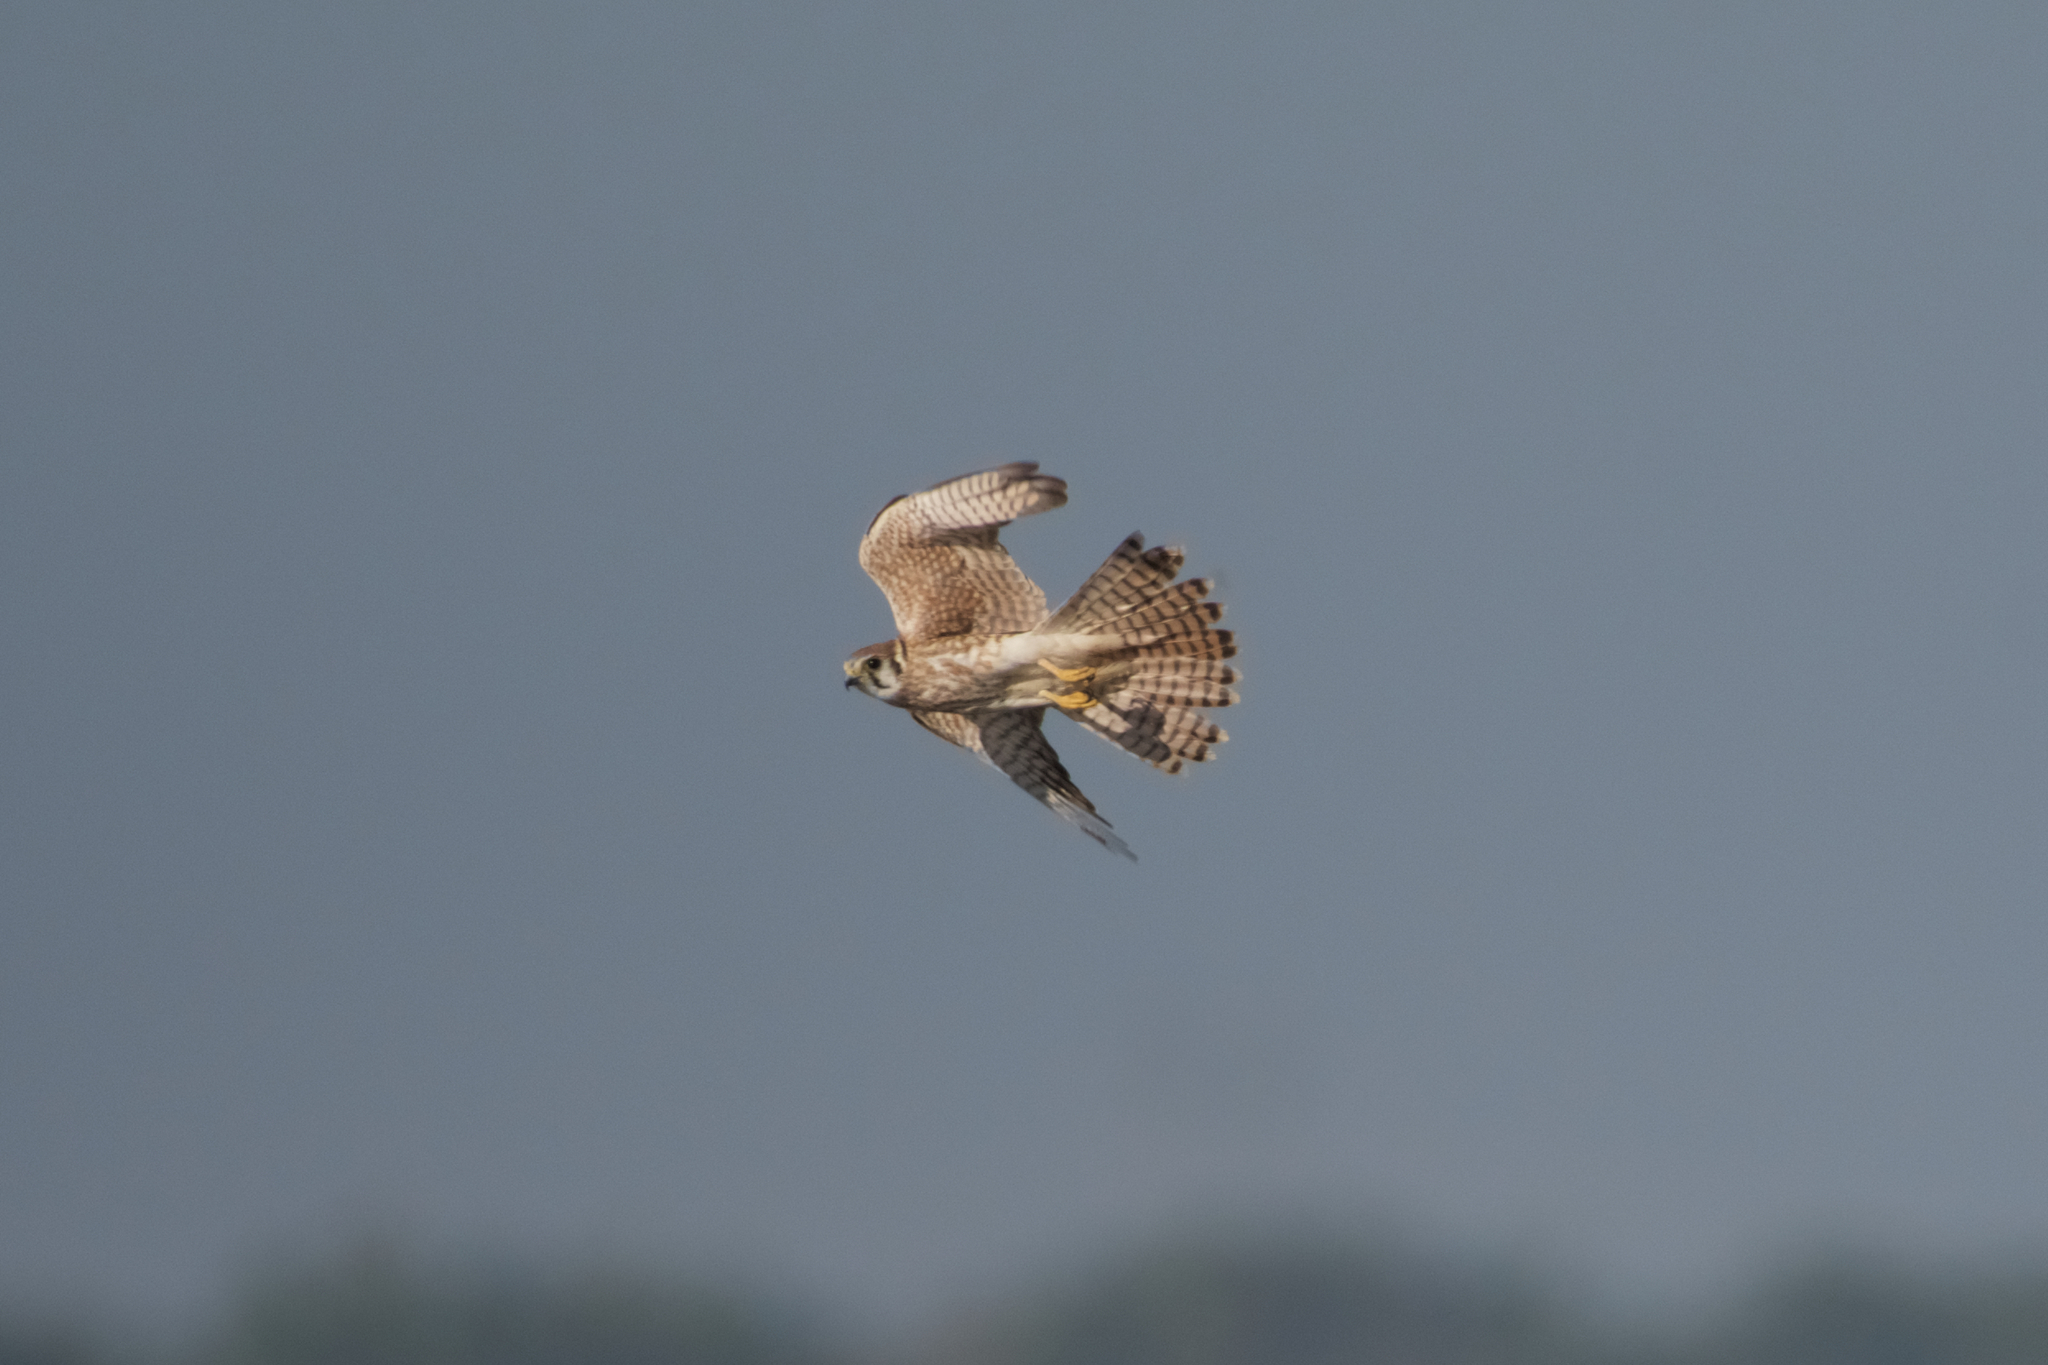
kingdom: Animalia
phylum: Chordata
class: Aves
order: Falconiformes
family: Falconidae
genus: Falco
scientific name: Falco sparverius
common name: American kestrel
